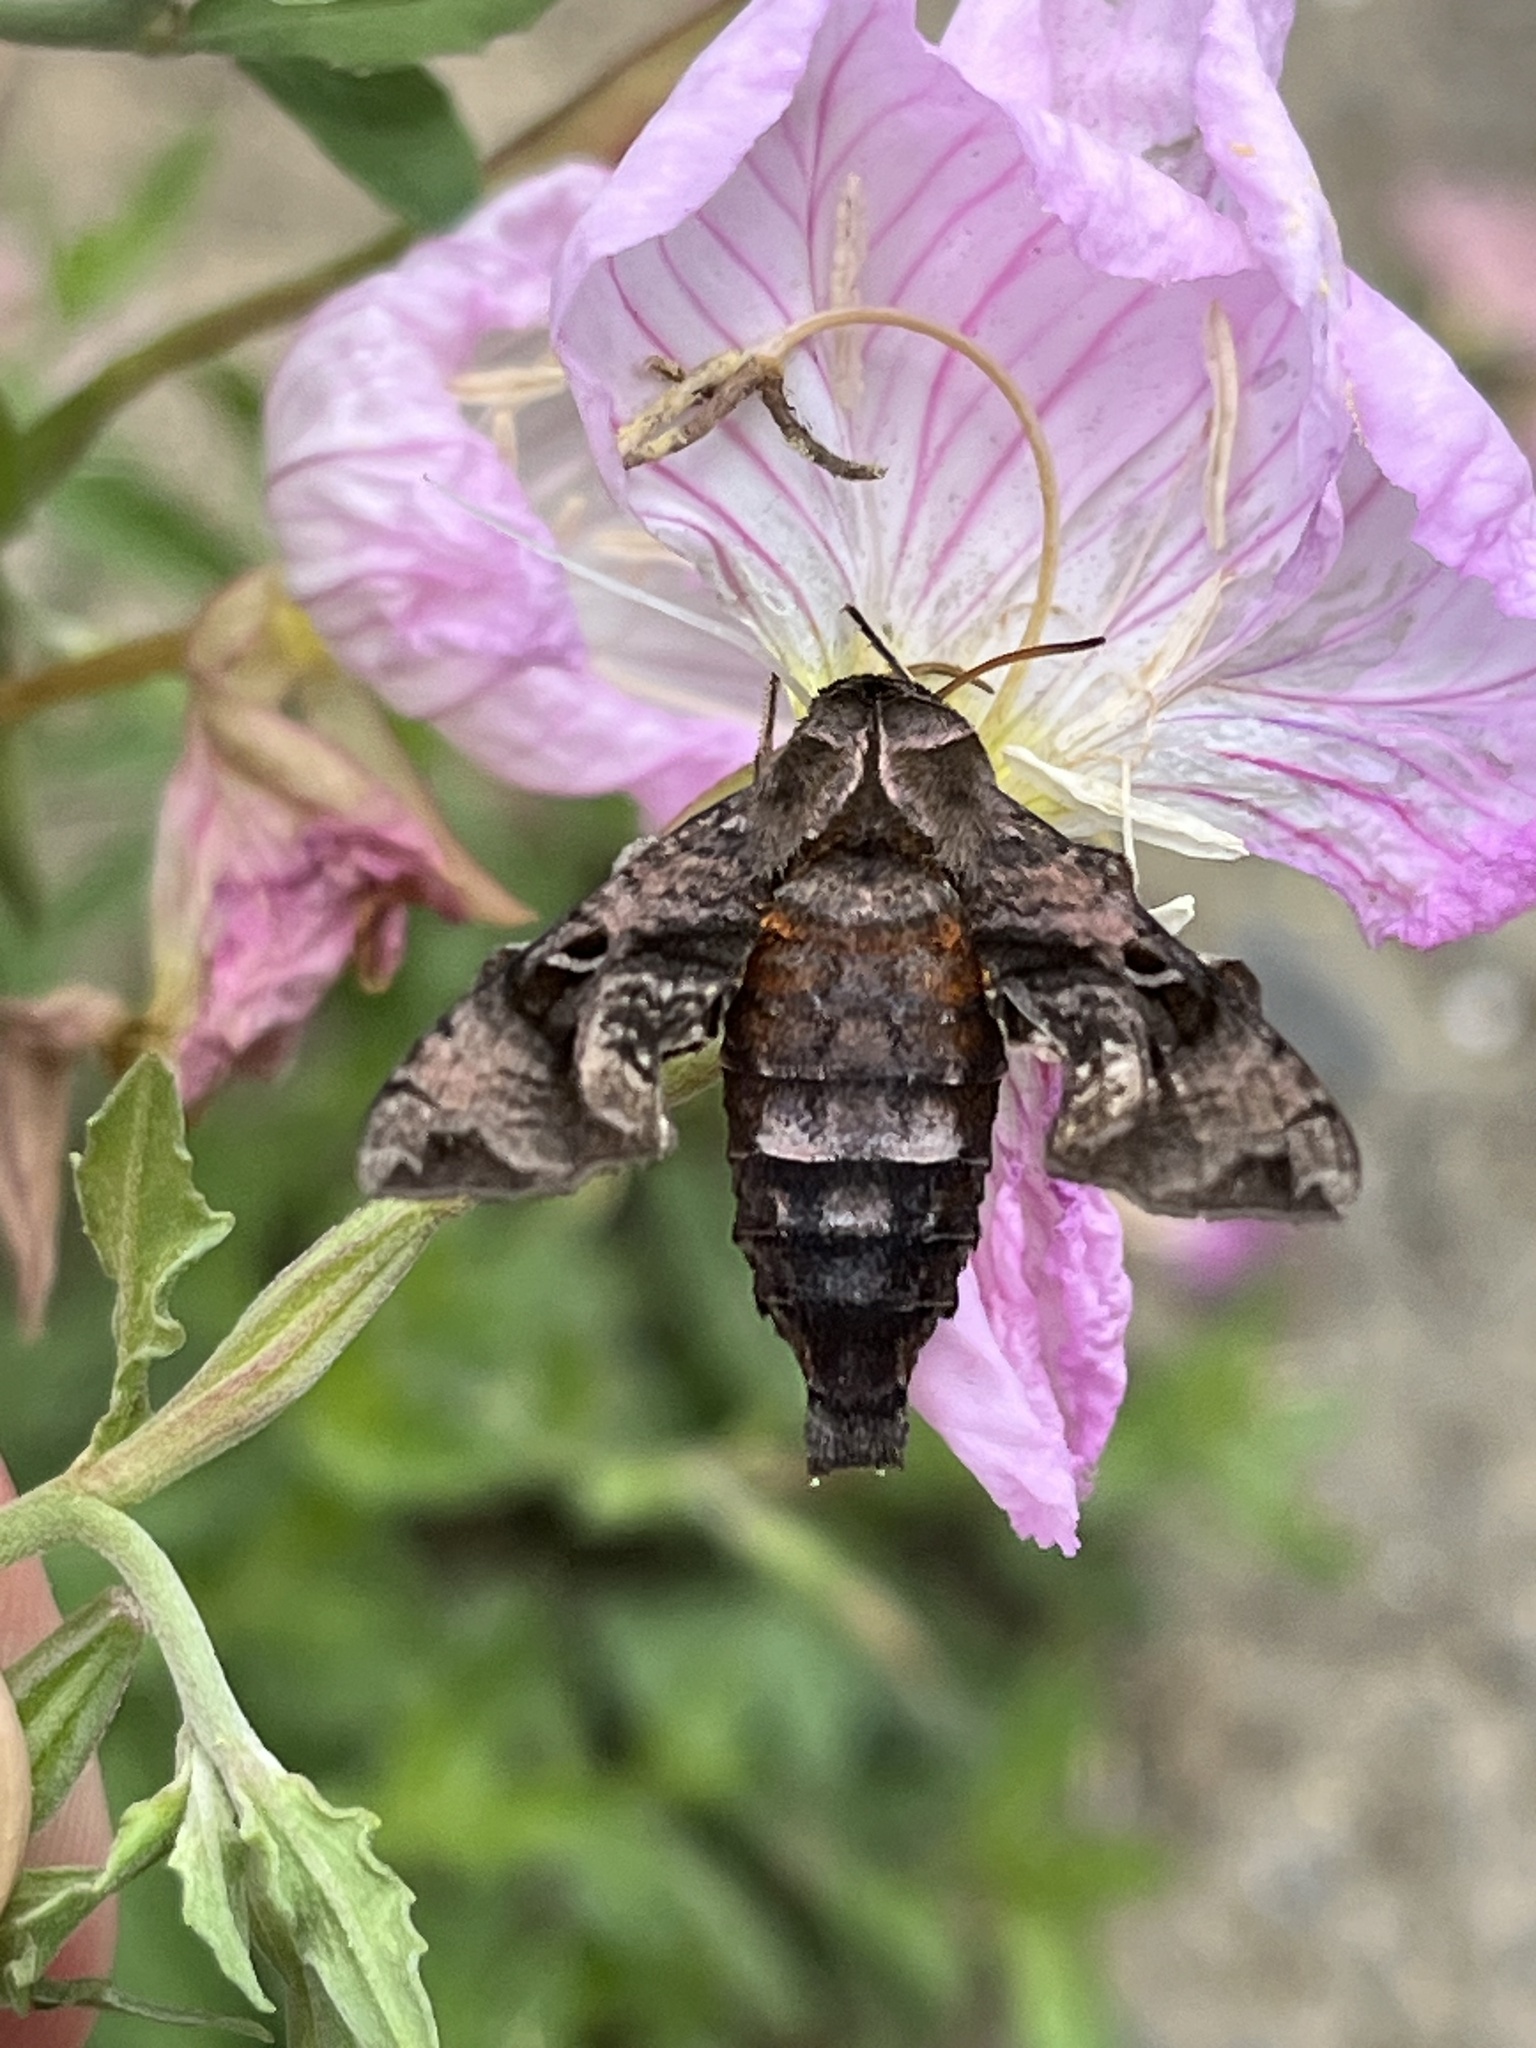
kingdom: Animalia
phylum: Arthropoda
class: Insecta
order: Lepidoptera
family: Sphingidae
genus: Neogurelca
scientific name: Neogurelca himachala
